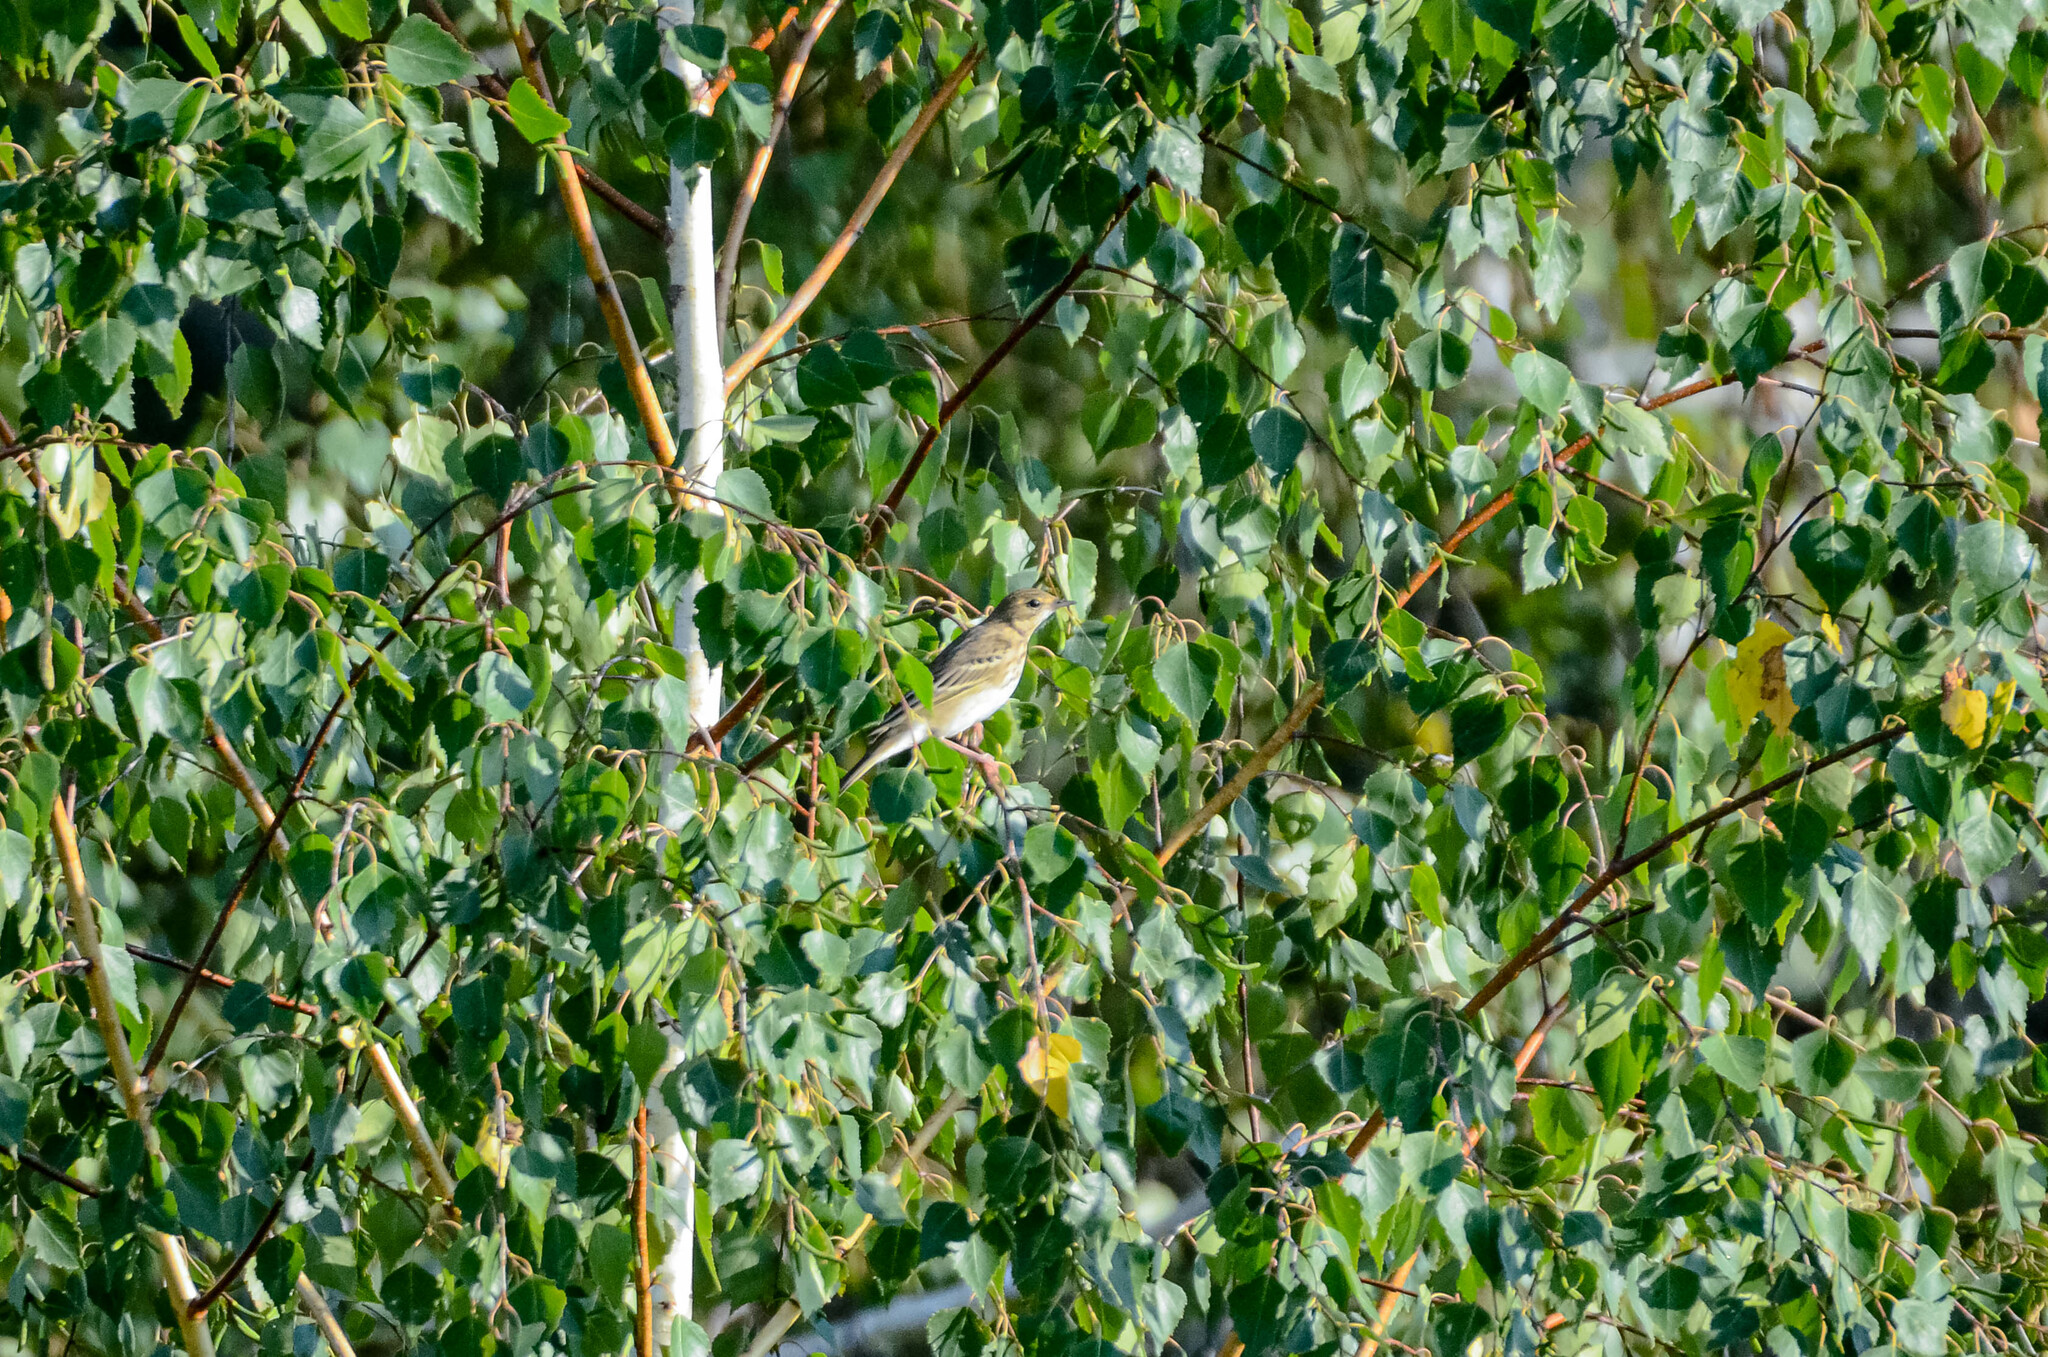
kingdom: Animalia
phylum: Chordata
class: Aves
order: Passeriformes
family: Motacillidae
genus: Anthus
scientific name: Anthus trivialis
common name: Tree pipit
